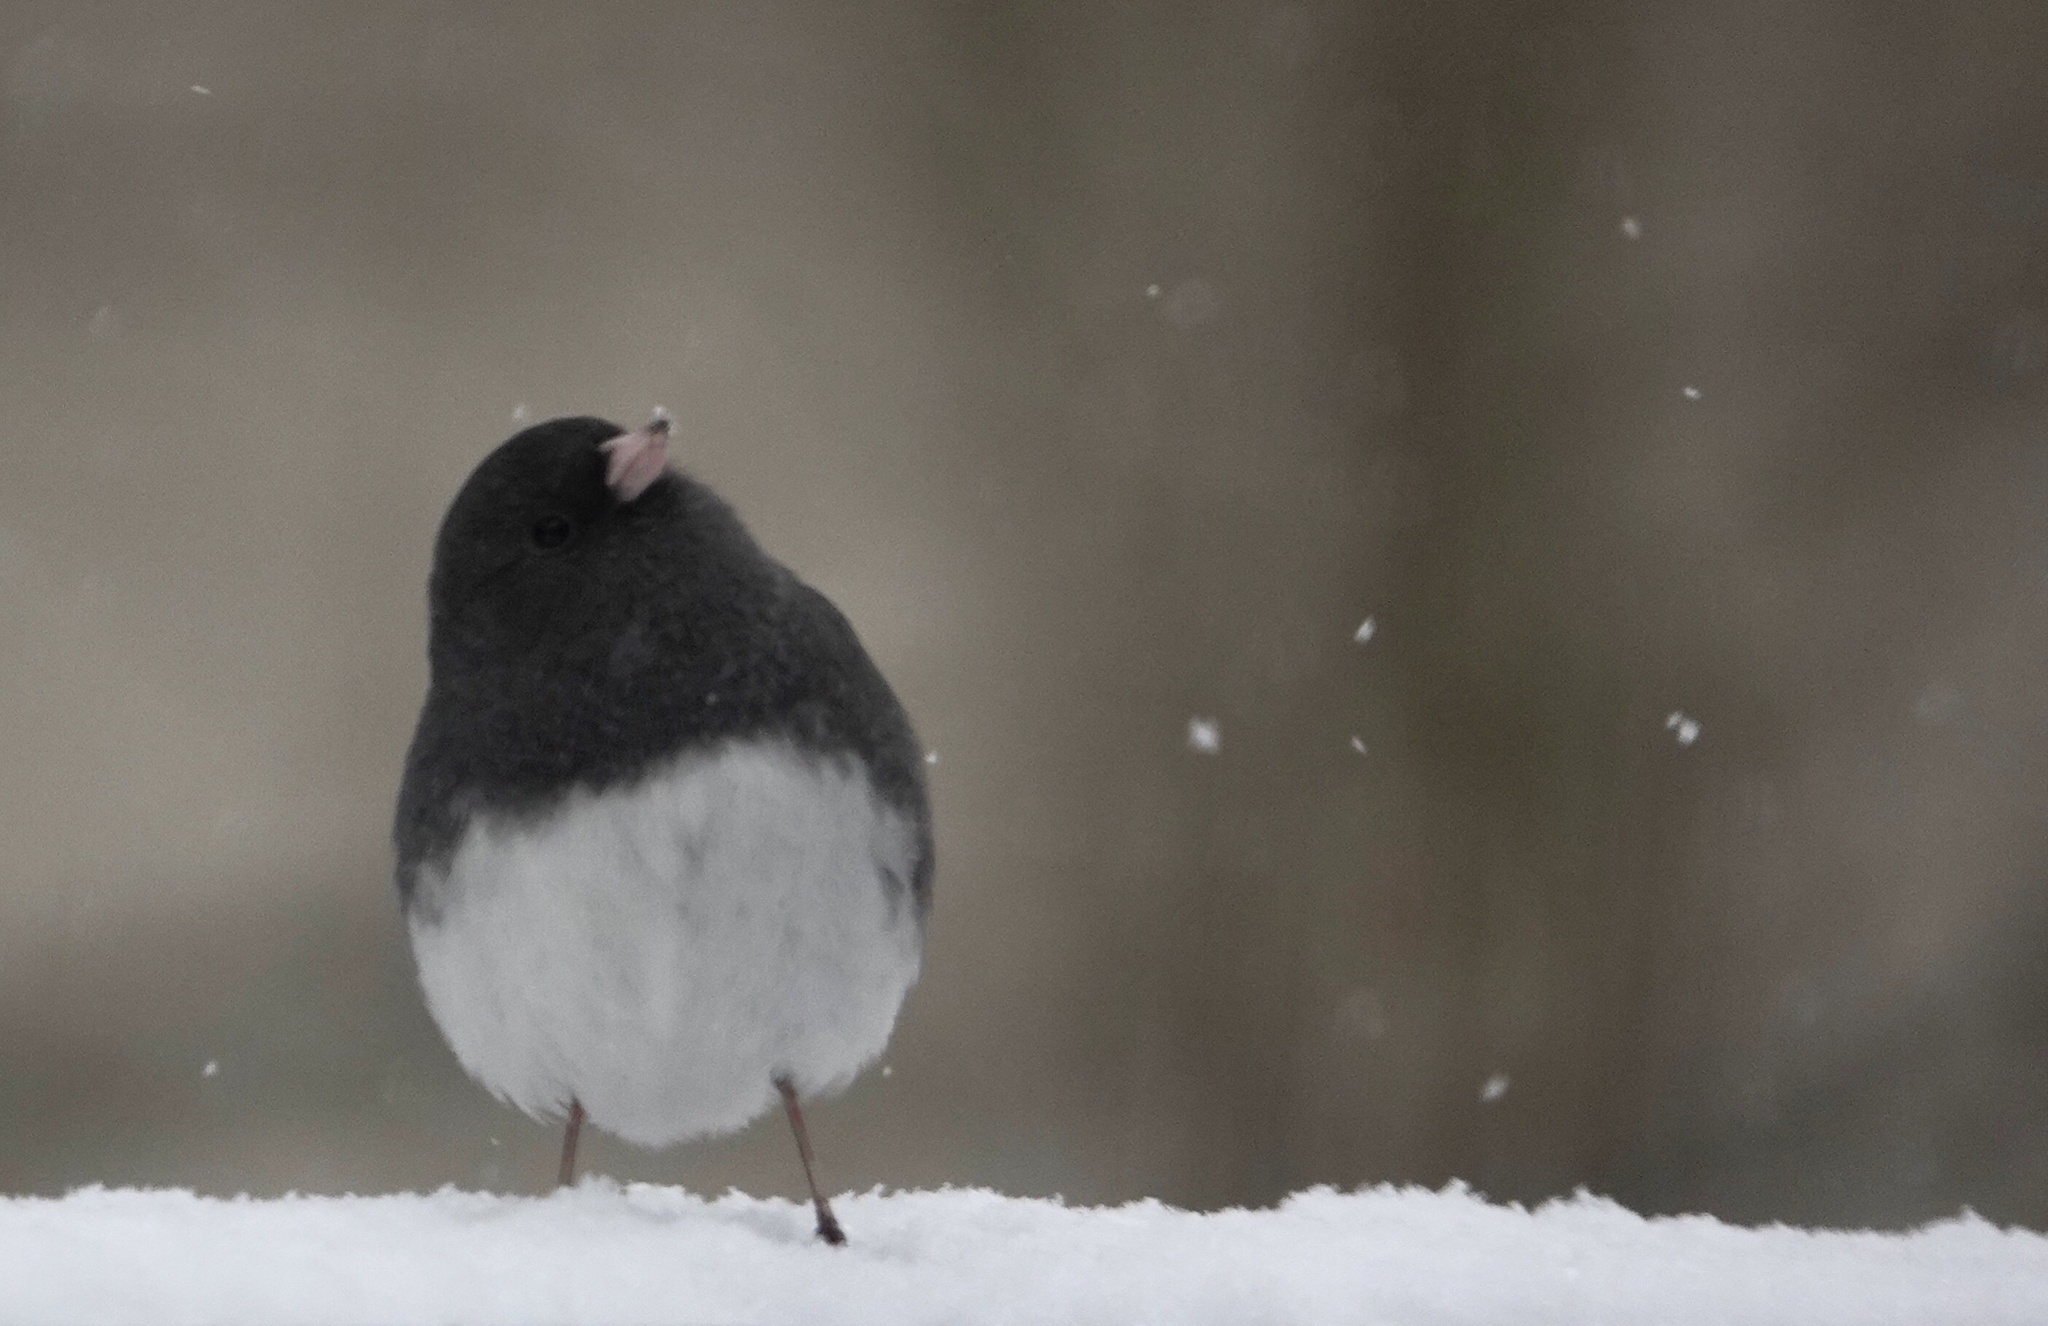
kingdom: Animalia
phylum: Chordata
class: Aves
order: Passeriformes
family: Passerellidae
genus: Junco
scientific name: Junco hyemalis
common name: Dark-eyed junco
